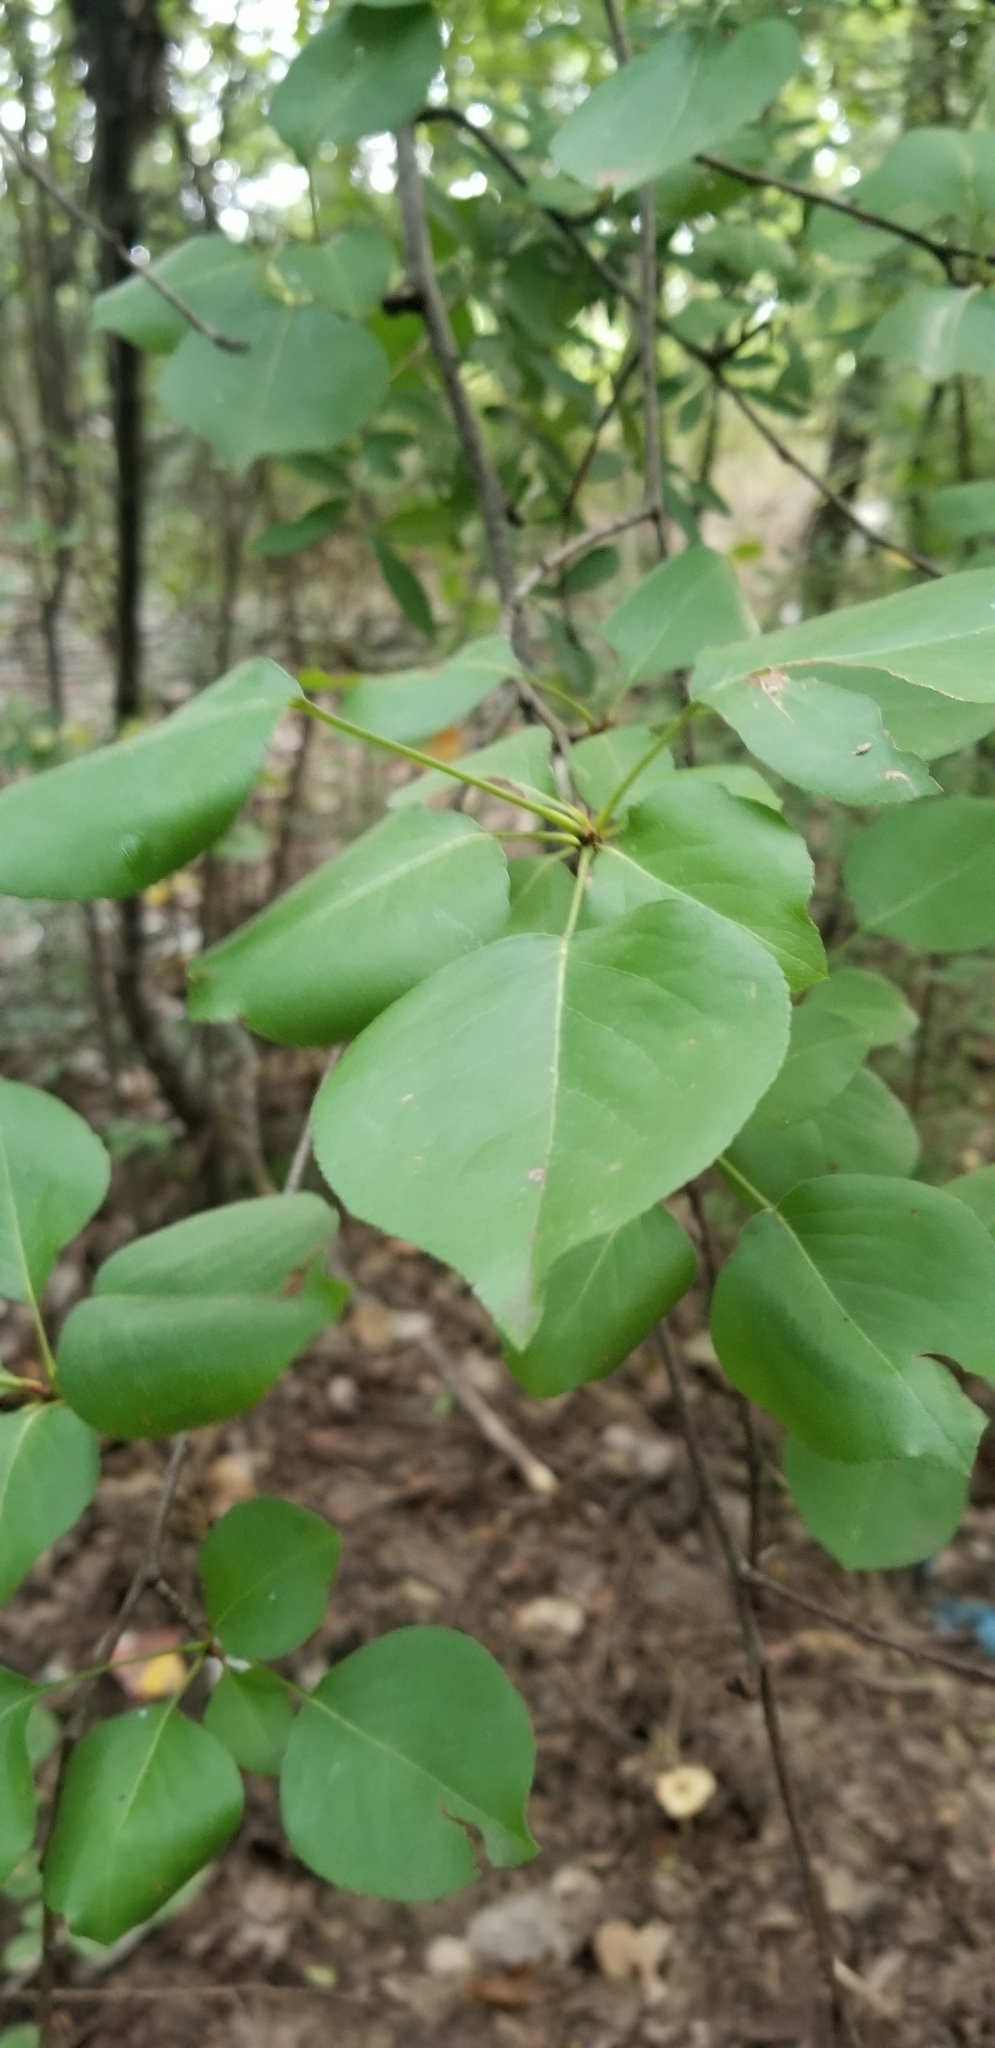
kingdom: Plantae
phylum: Tracheophyta
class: Magnoliopsida
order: Fabales
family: Fabaceae
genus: Cercis
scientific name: Cercis canadensis
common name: Eastern redbud
